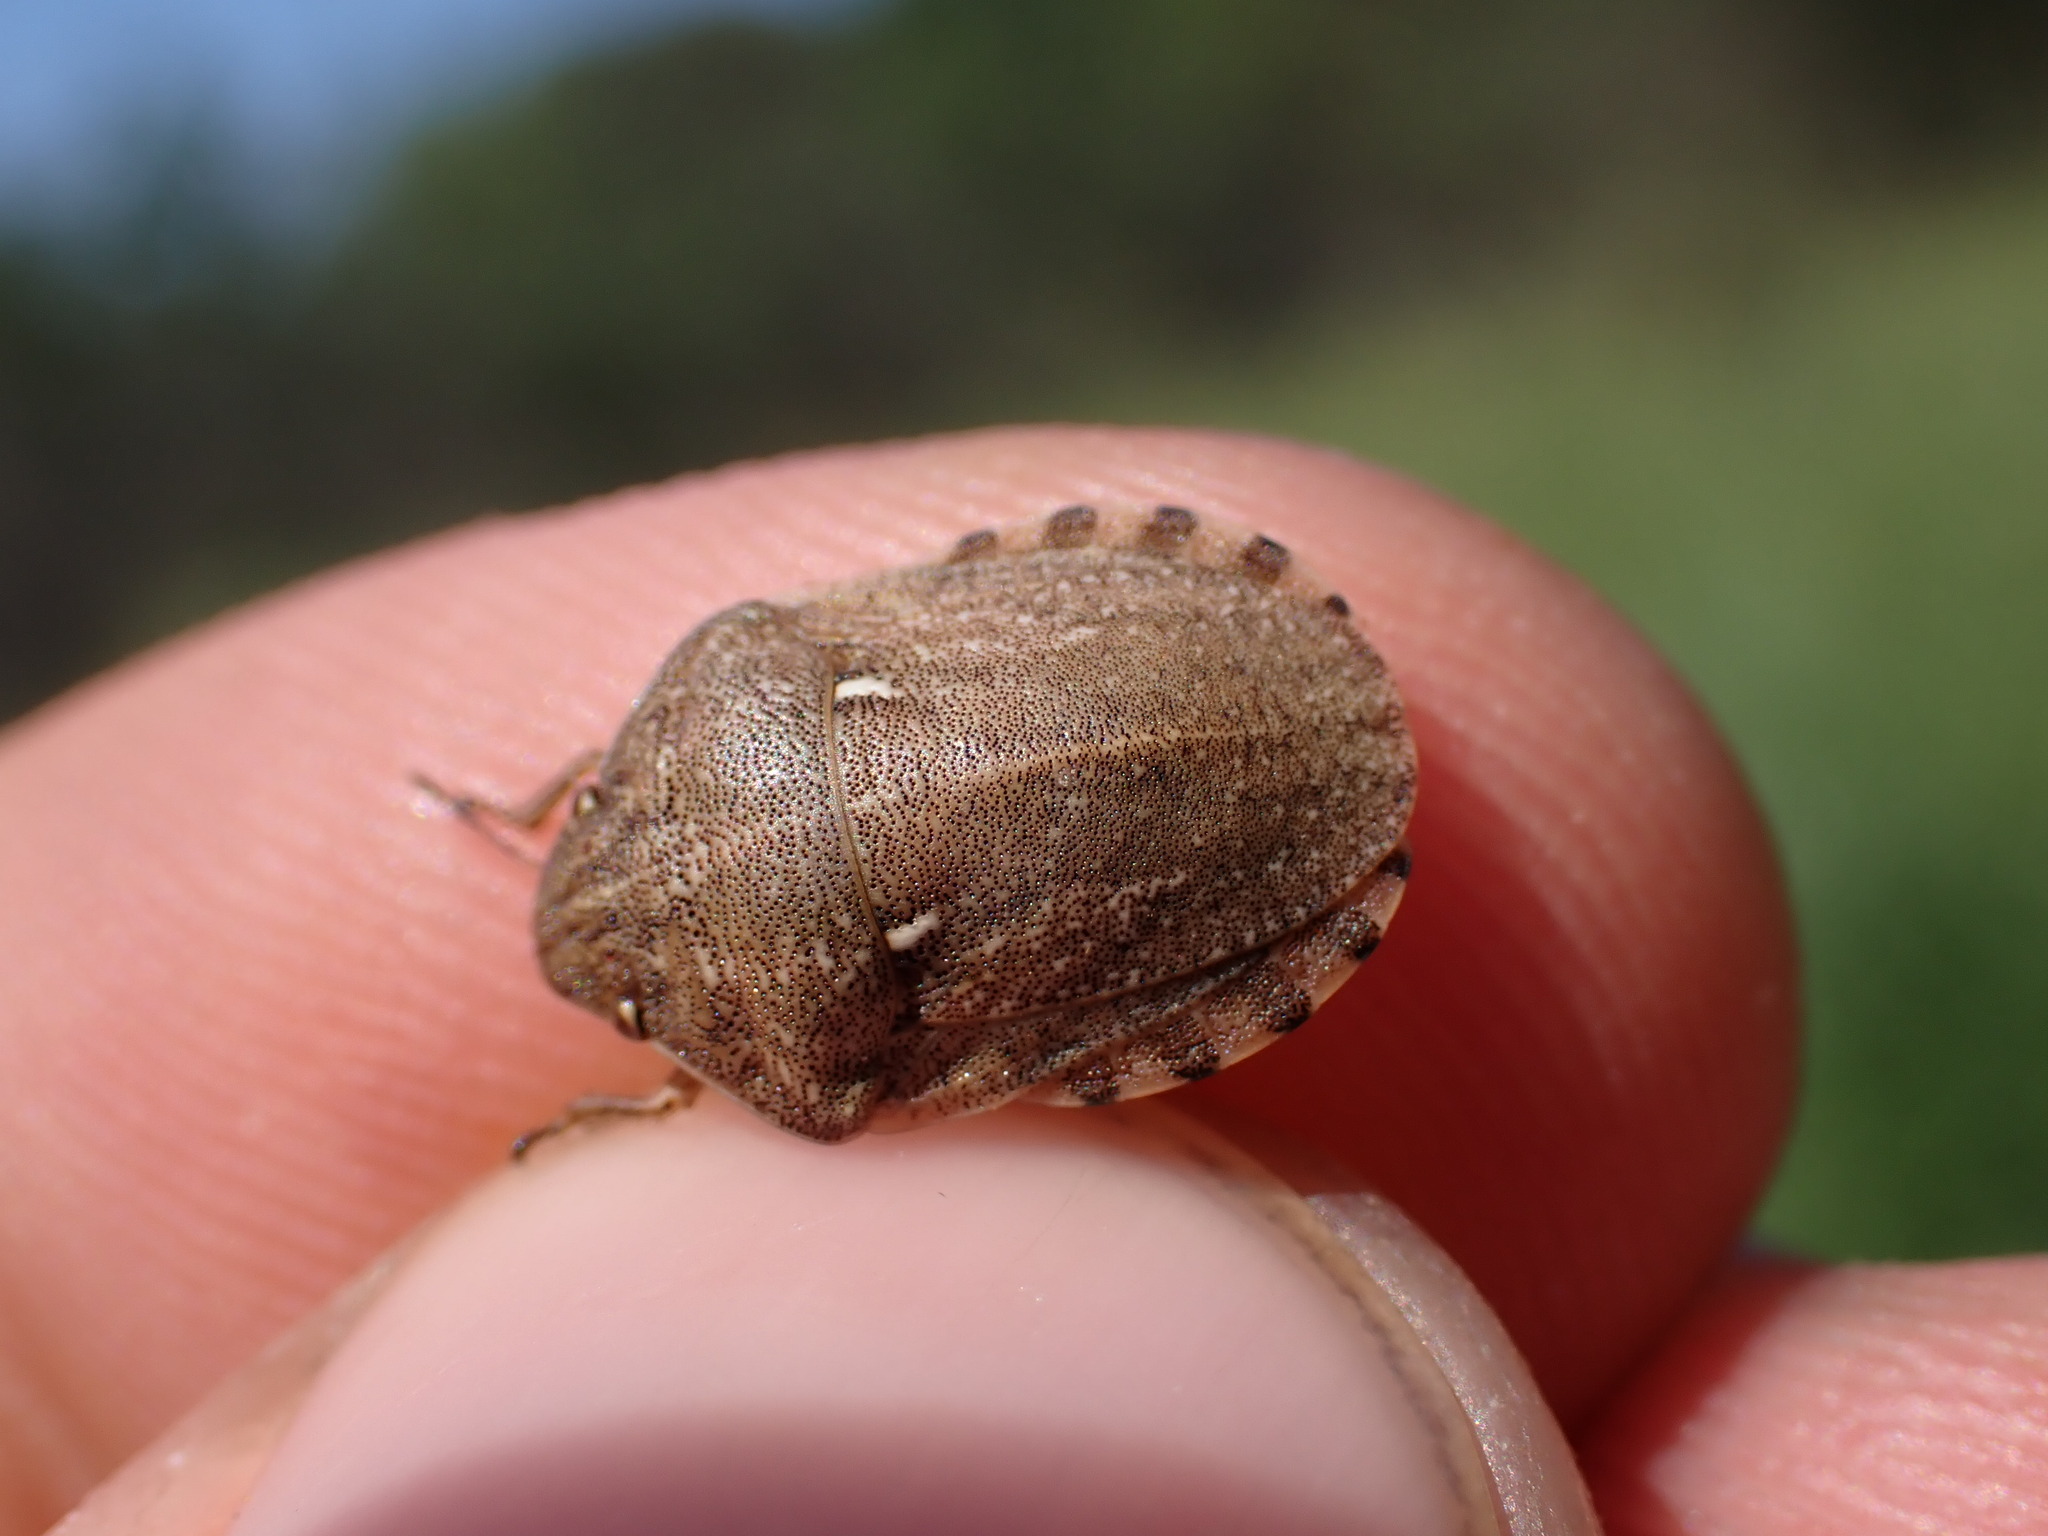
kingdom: Animalia
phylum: Arthropoda
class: Insecta
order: Hemiptera
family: Scutelleridae
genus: Eurygaster
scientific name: Eurygaster maura
